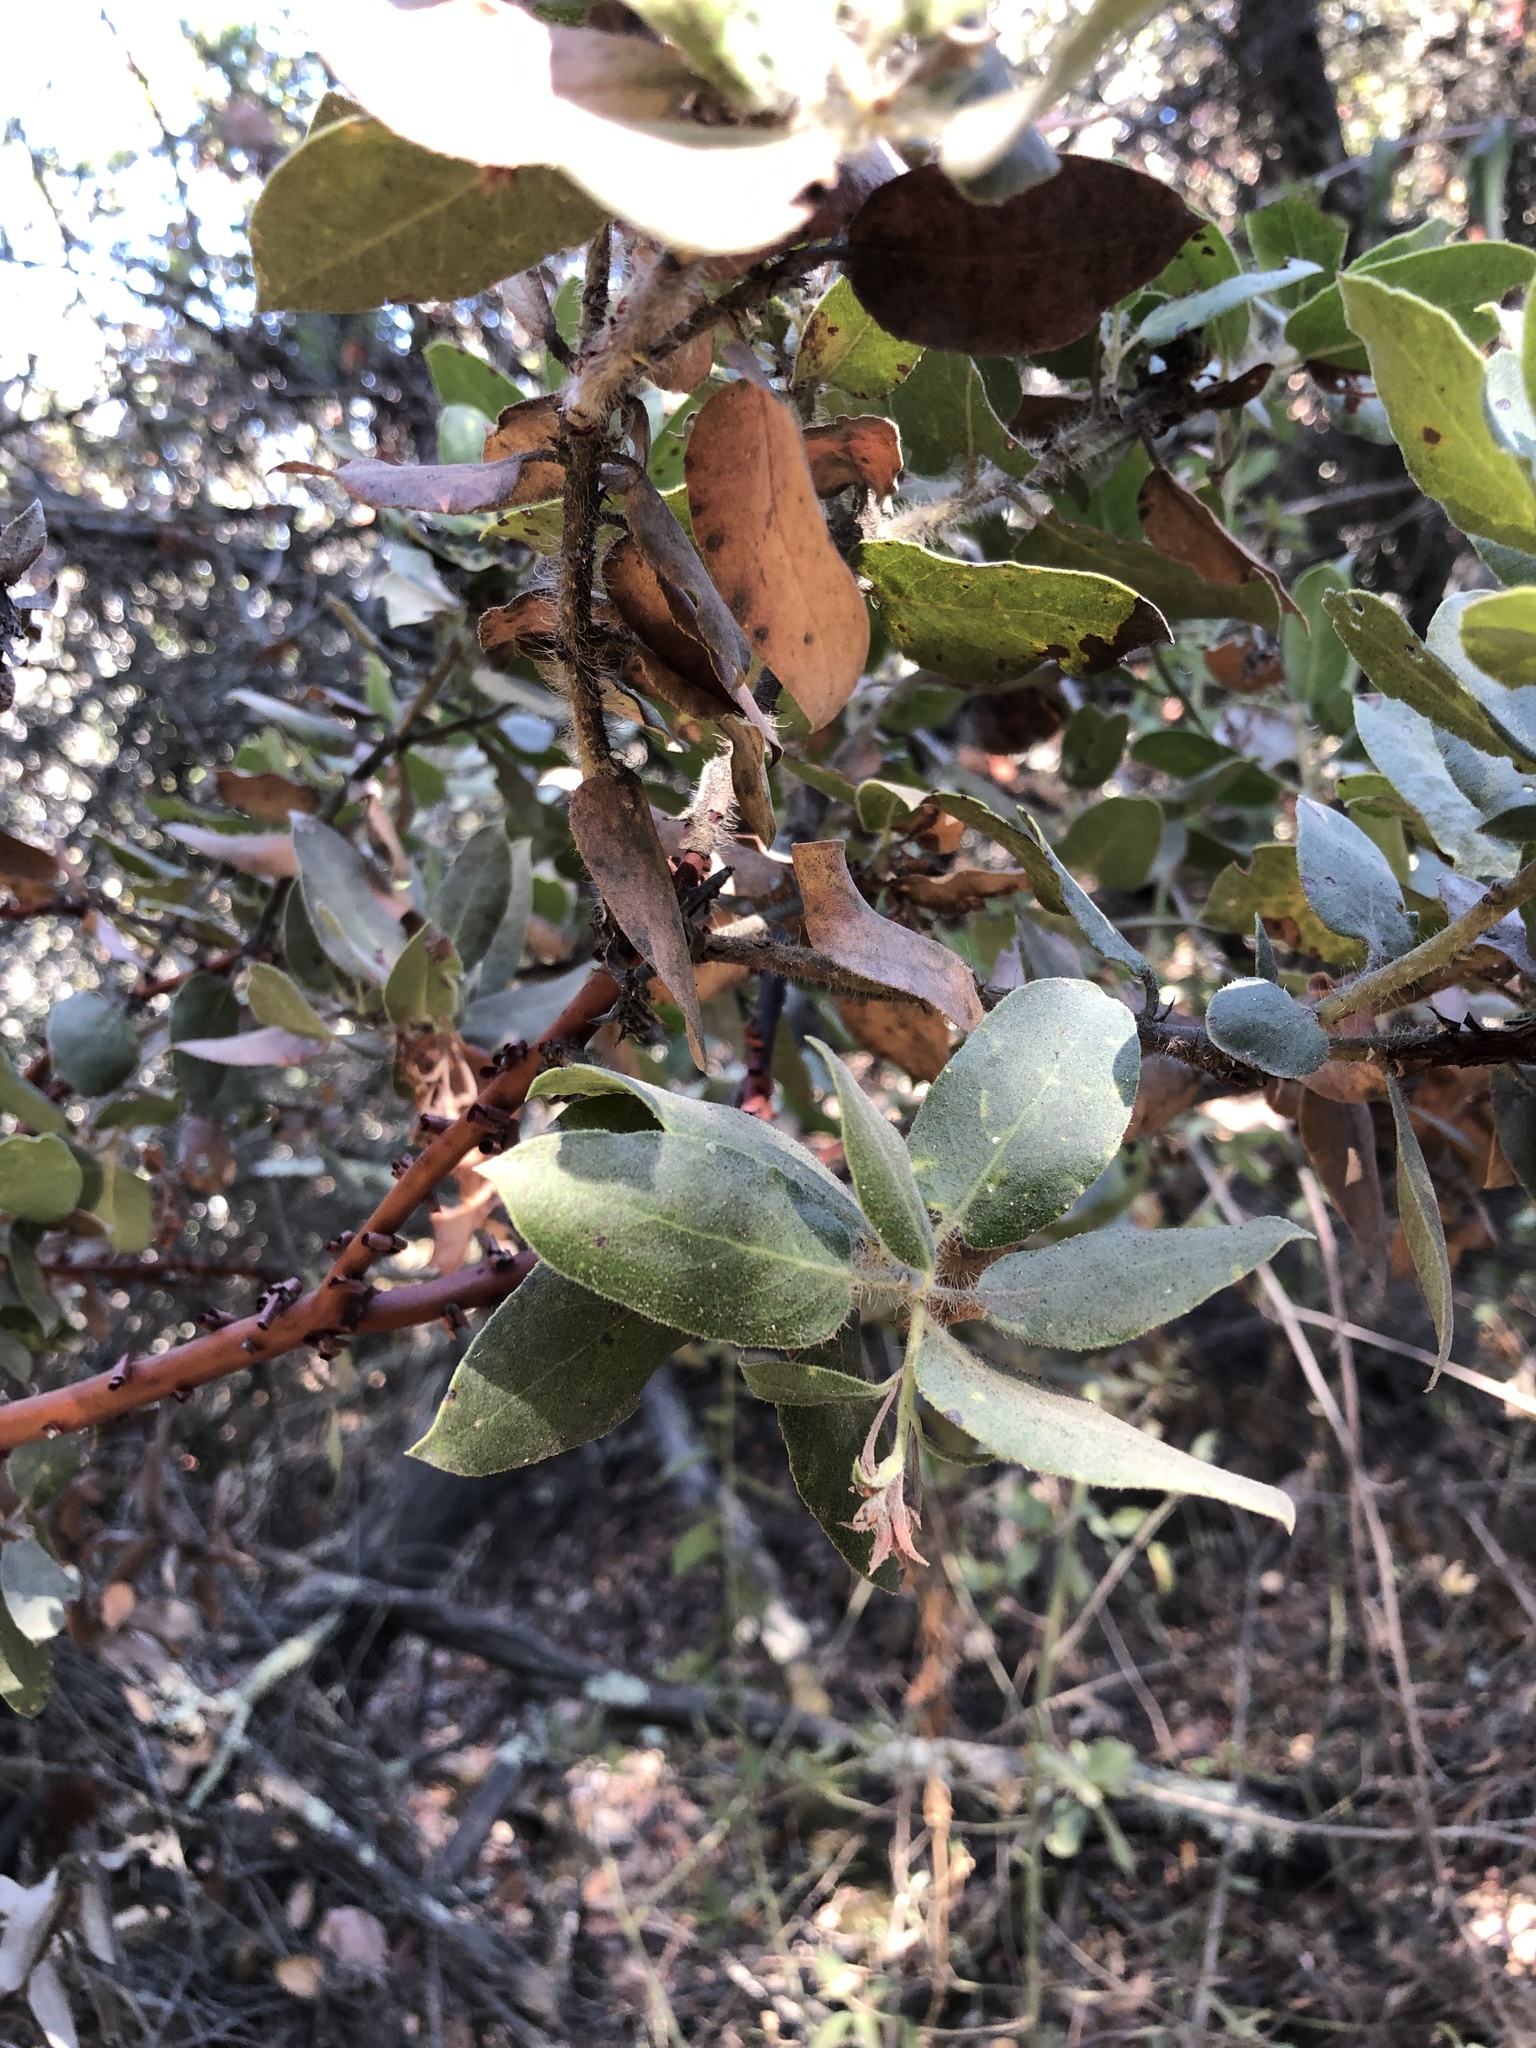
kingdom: Plantae
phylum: Tracheophyta
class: Magnoliopsida
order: Ericales
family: Ericaceae
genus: Arctostaphylos
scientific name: Arctostaphylos crustacea
